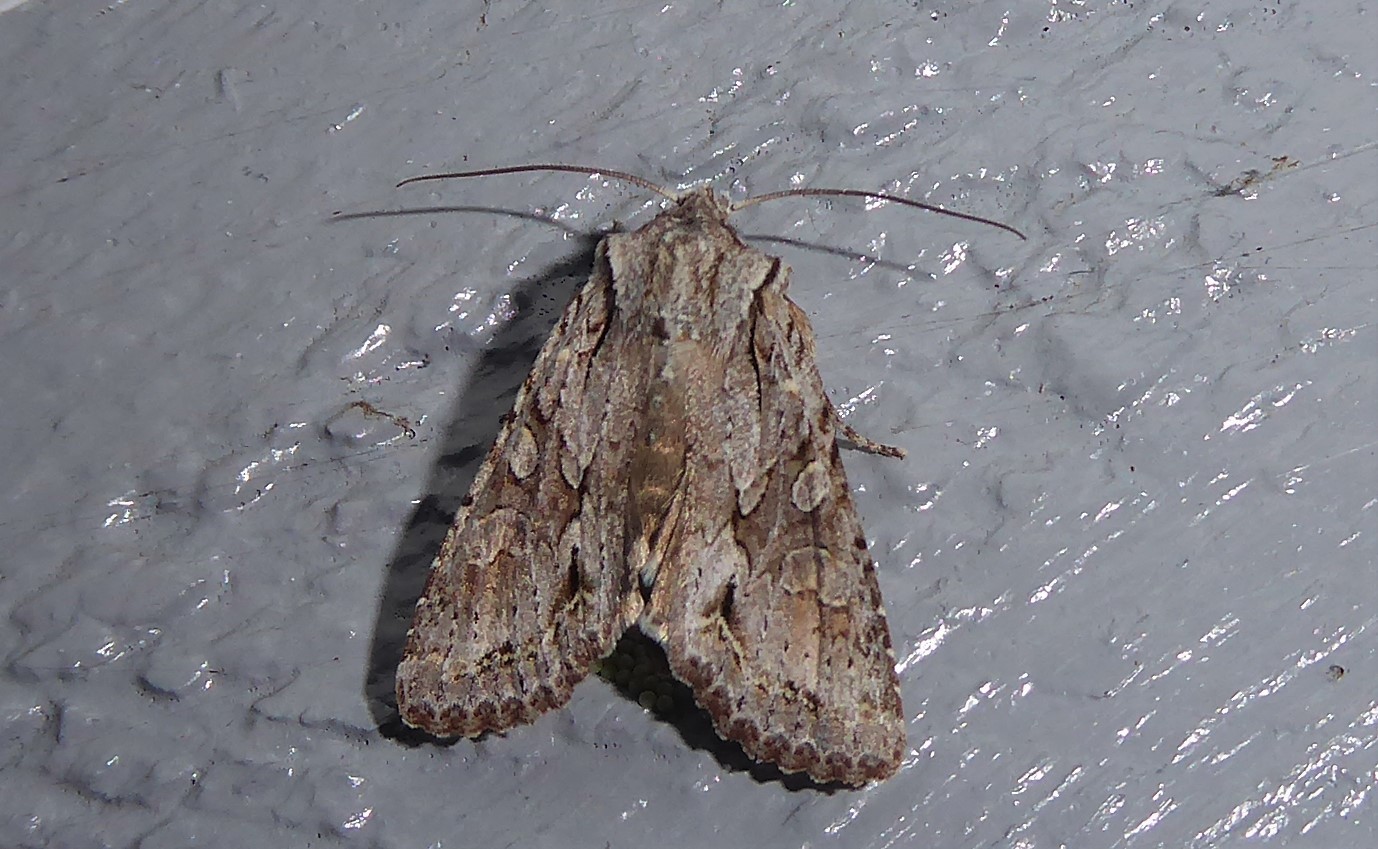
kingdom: Animalia
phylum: Arthropoda
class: Insecta
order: Lepidoptera
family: Noctuidae
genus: Ichneutica
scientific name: Ichneutica mutans
